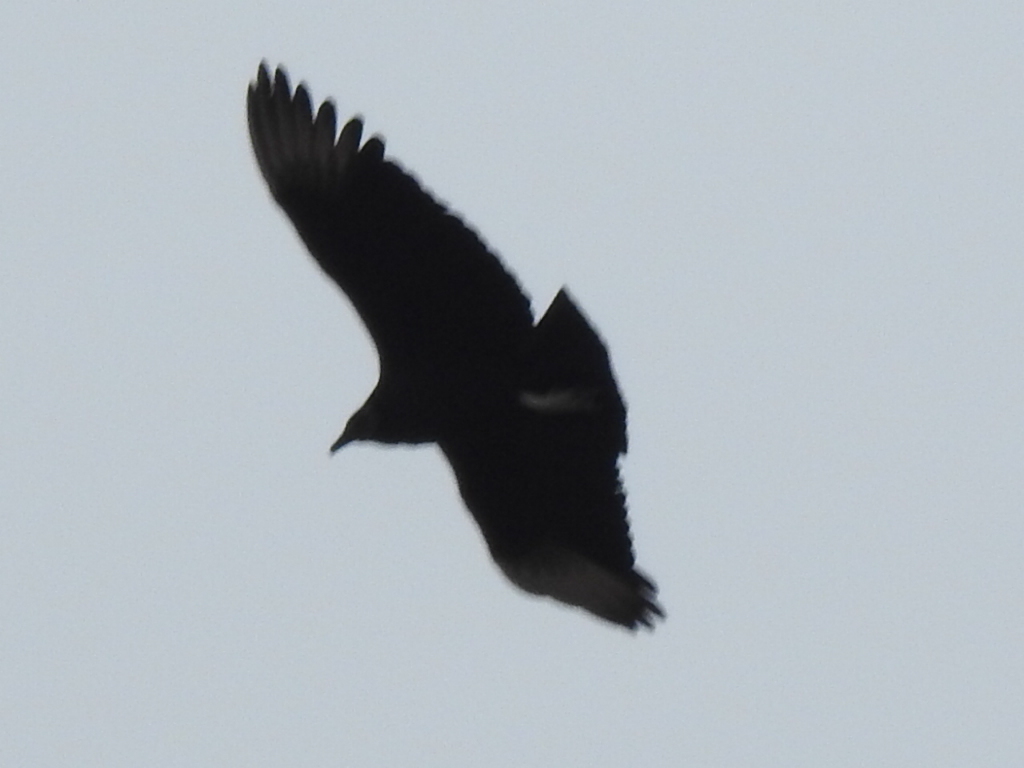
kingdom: Animalia
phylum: Chordata
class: Aves
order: Accipitriformes
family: Cathartidae
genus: Coragyps
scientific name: Coragyps atratus
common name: Black vulture
